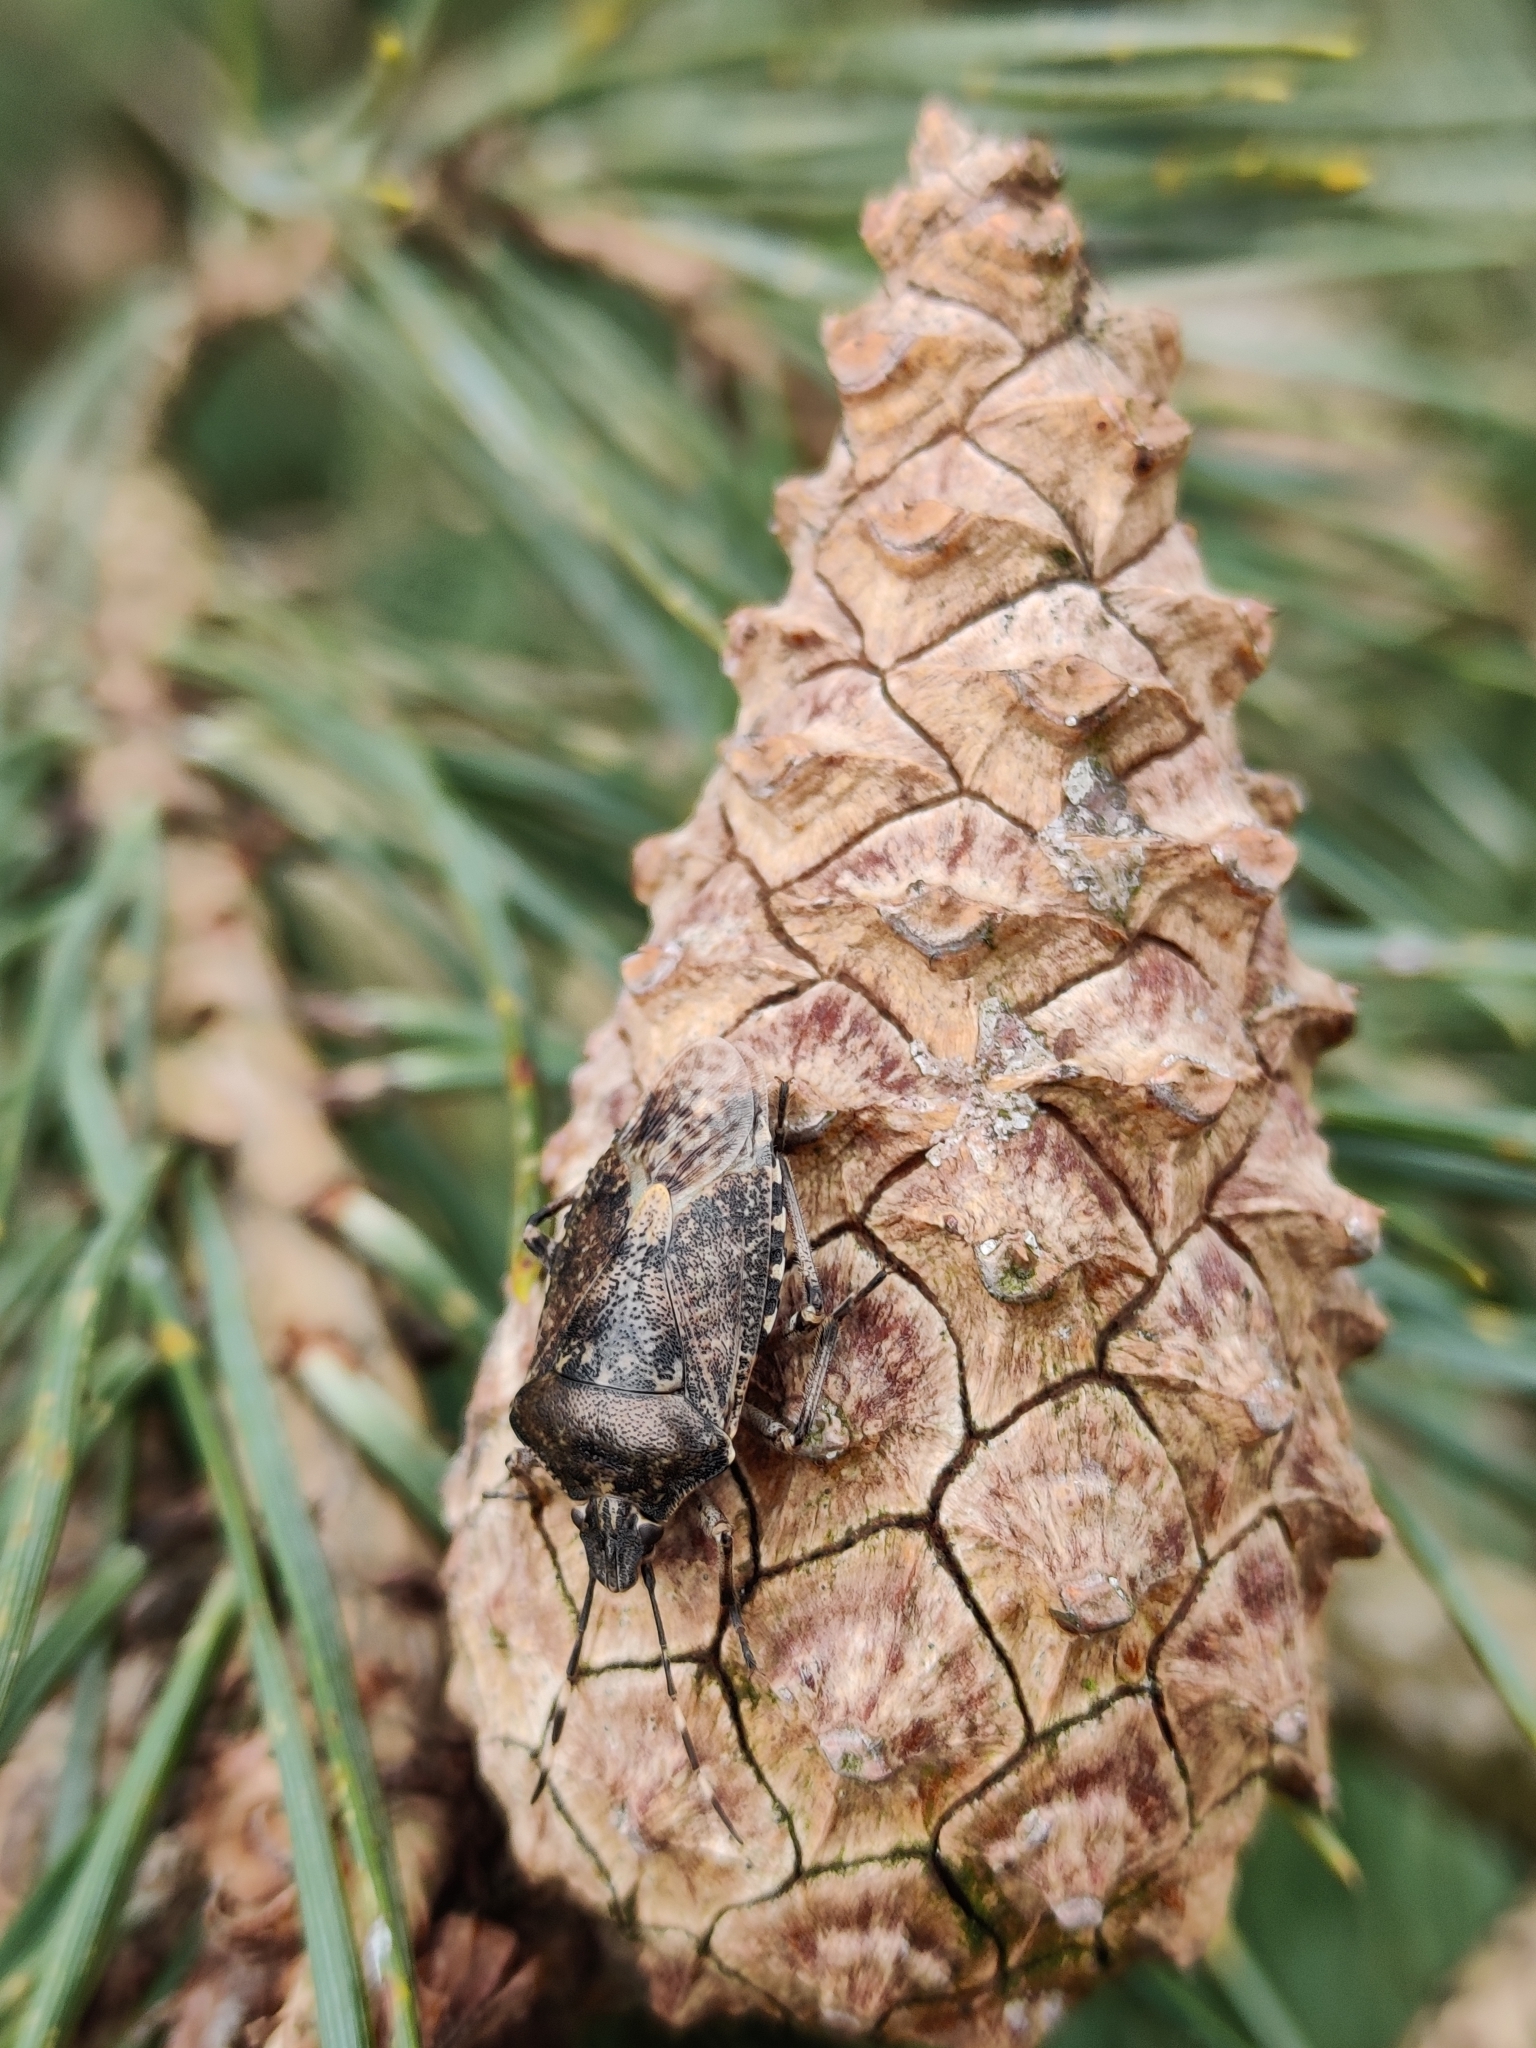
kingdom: Animalia
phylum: Arthropoda
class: Insecta
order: Hemiptera
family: Pentatomidae
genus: Rhaphigaster
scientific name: Rhaphigaster nebulosa
